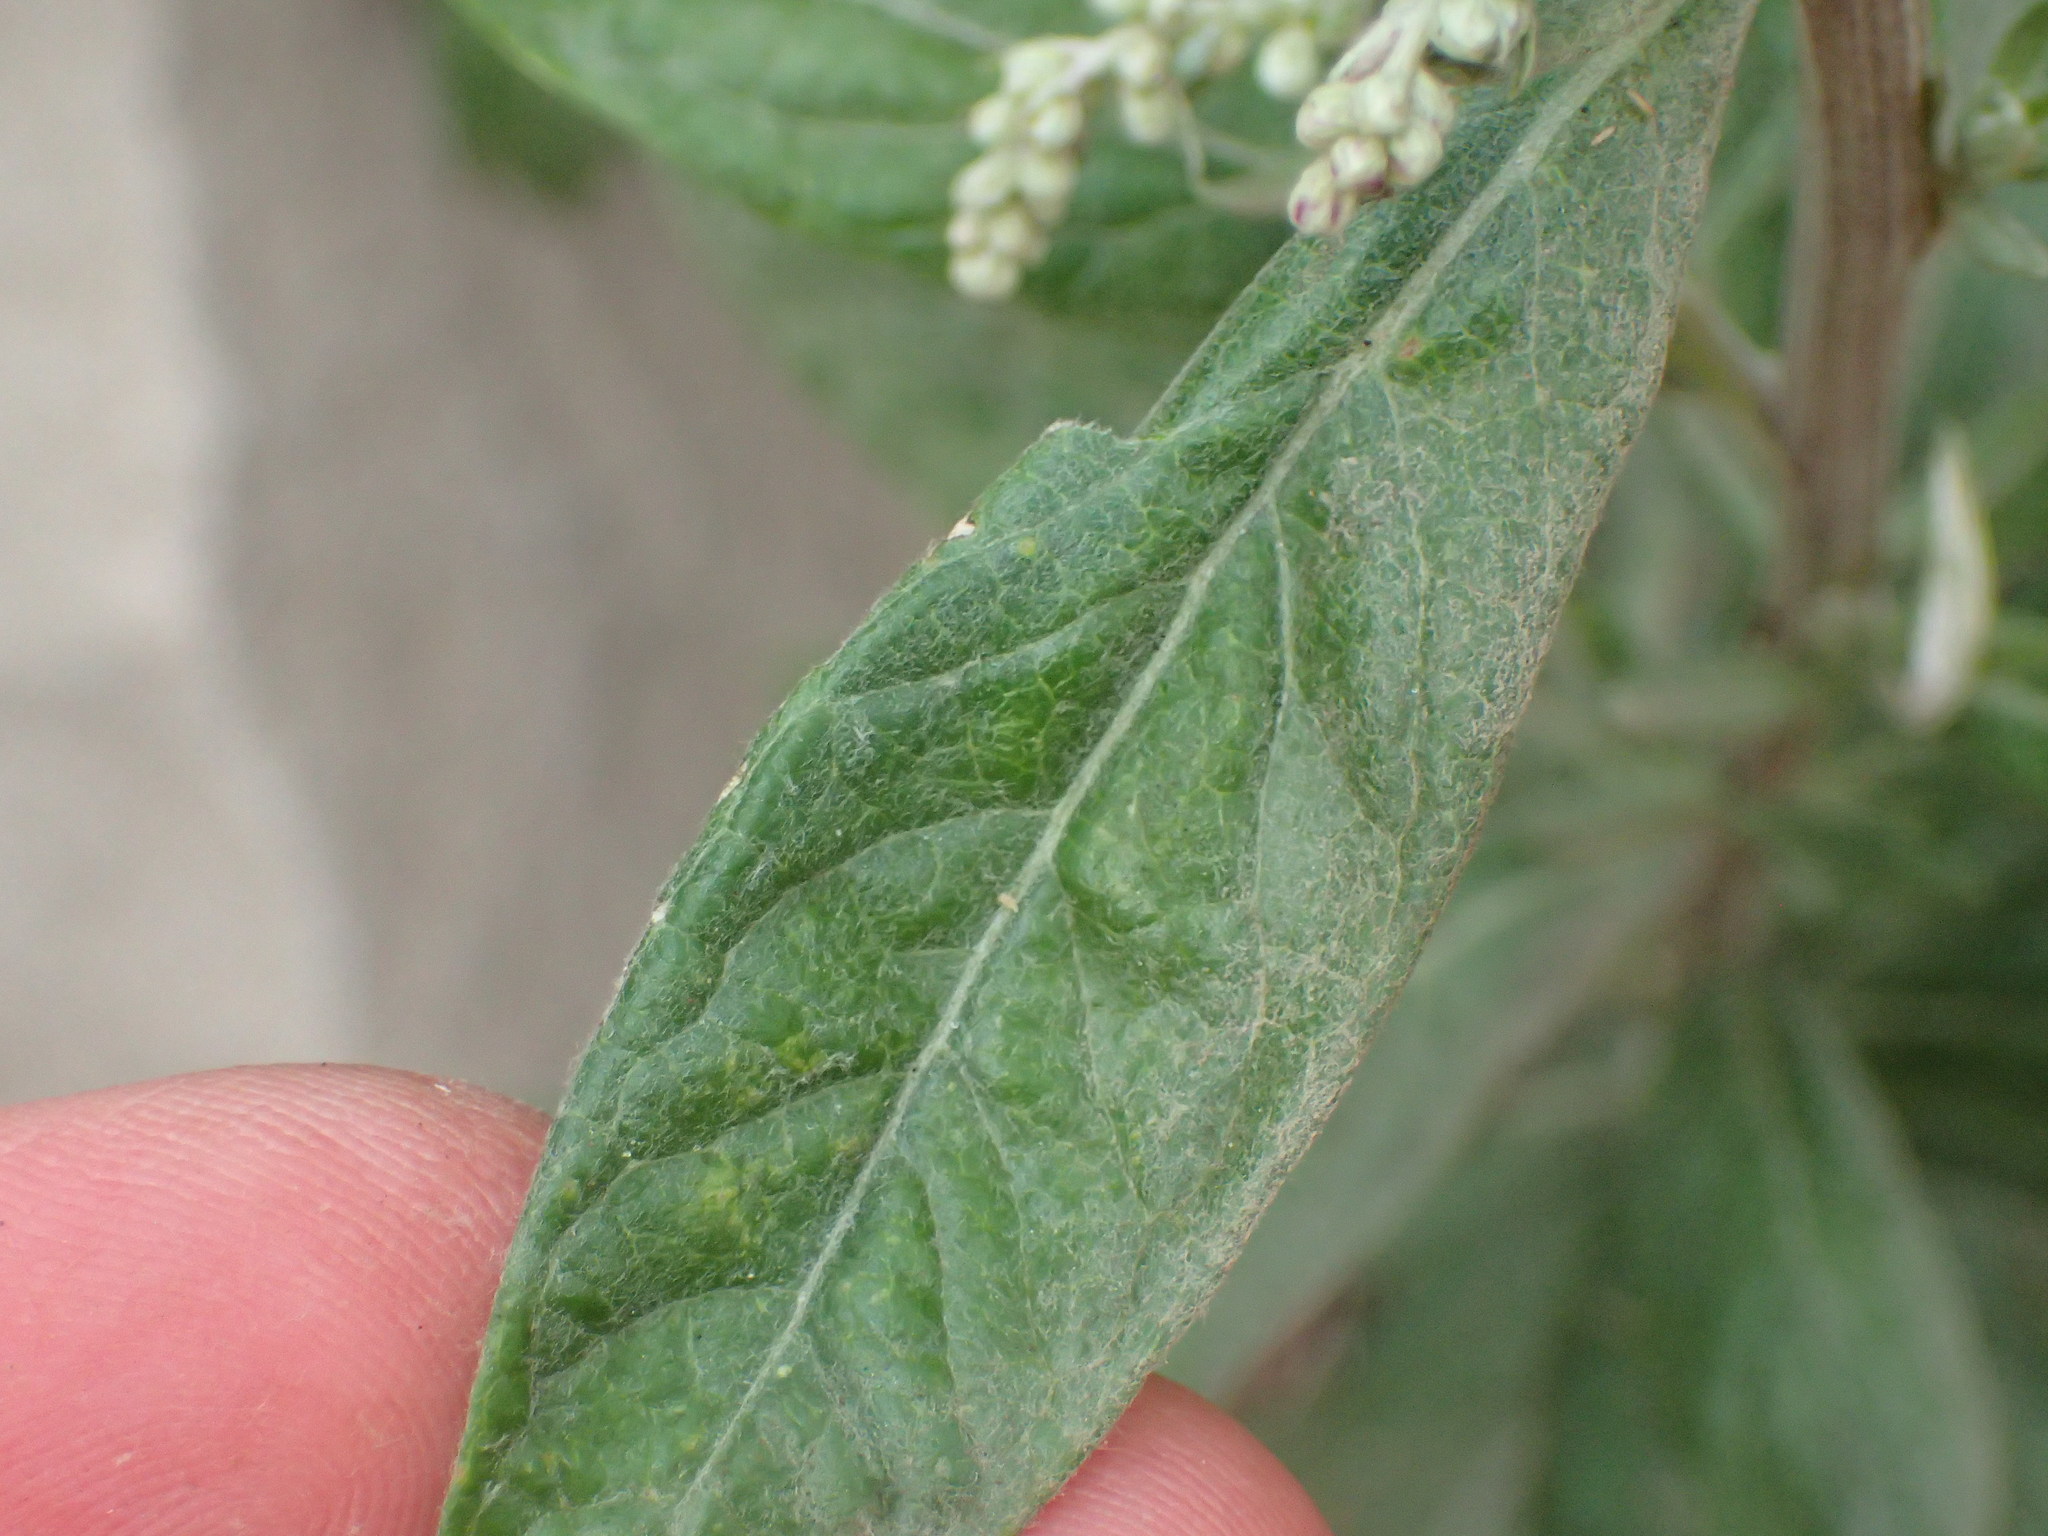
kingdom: Plantae
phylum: Tracheophyta
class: Magnoliopsida
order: Asterales
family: Asteraceae
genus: Artemisia
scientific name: Artemisia douglasiana
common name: Northwest mugwort
